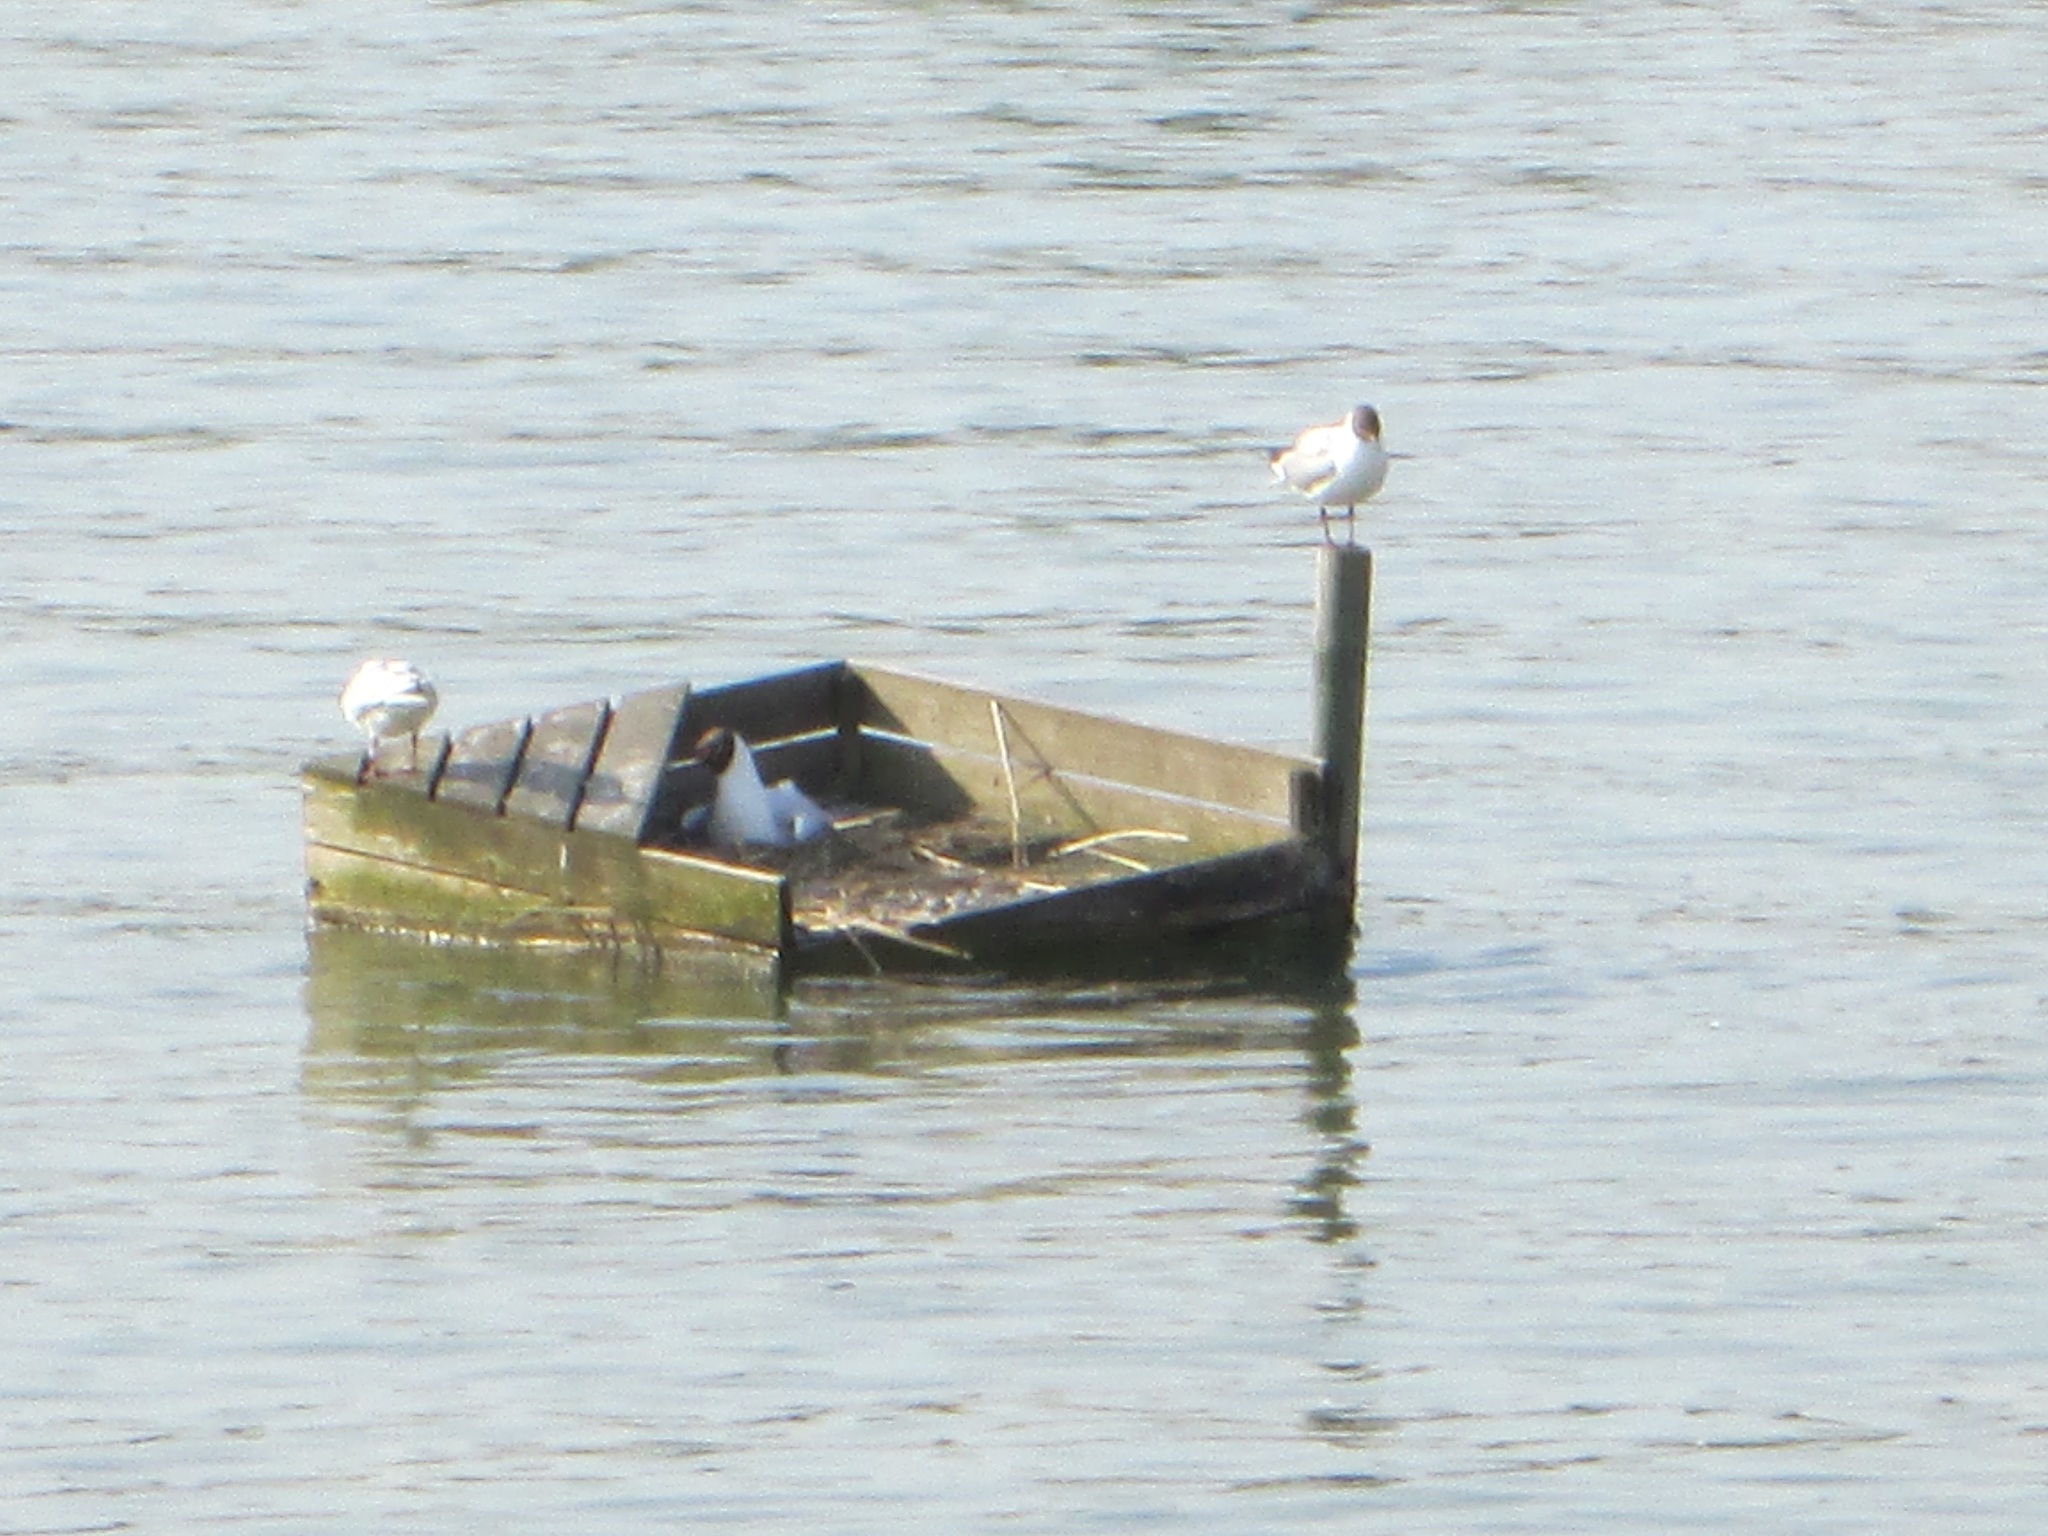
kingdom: Animalia
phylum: Chordata
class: Aves
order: Charadriiformes
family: Laridae
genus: Chroicocephalus
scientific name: Chroicocephalus ridibundus
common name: Black-headed gull
